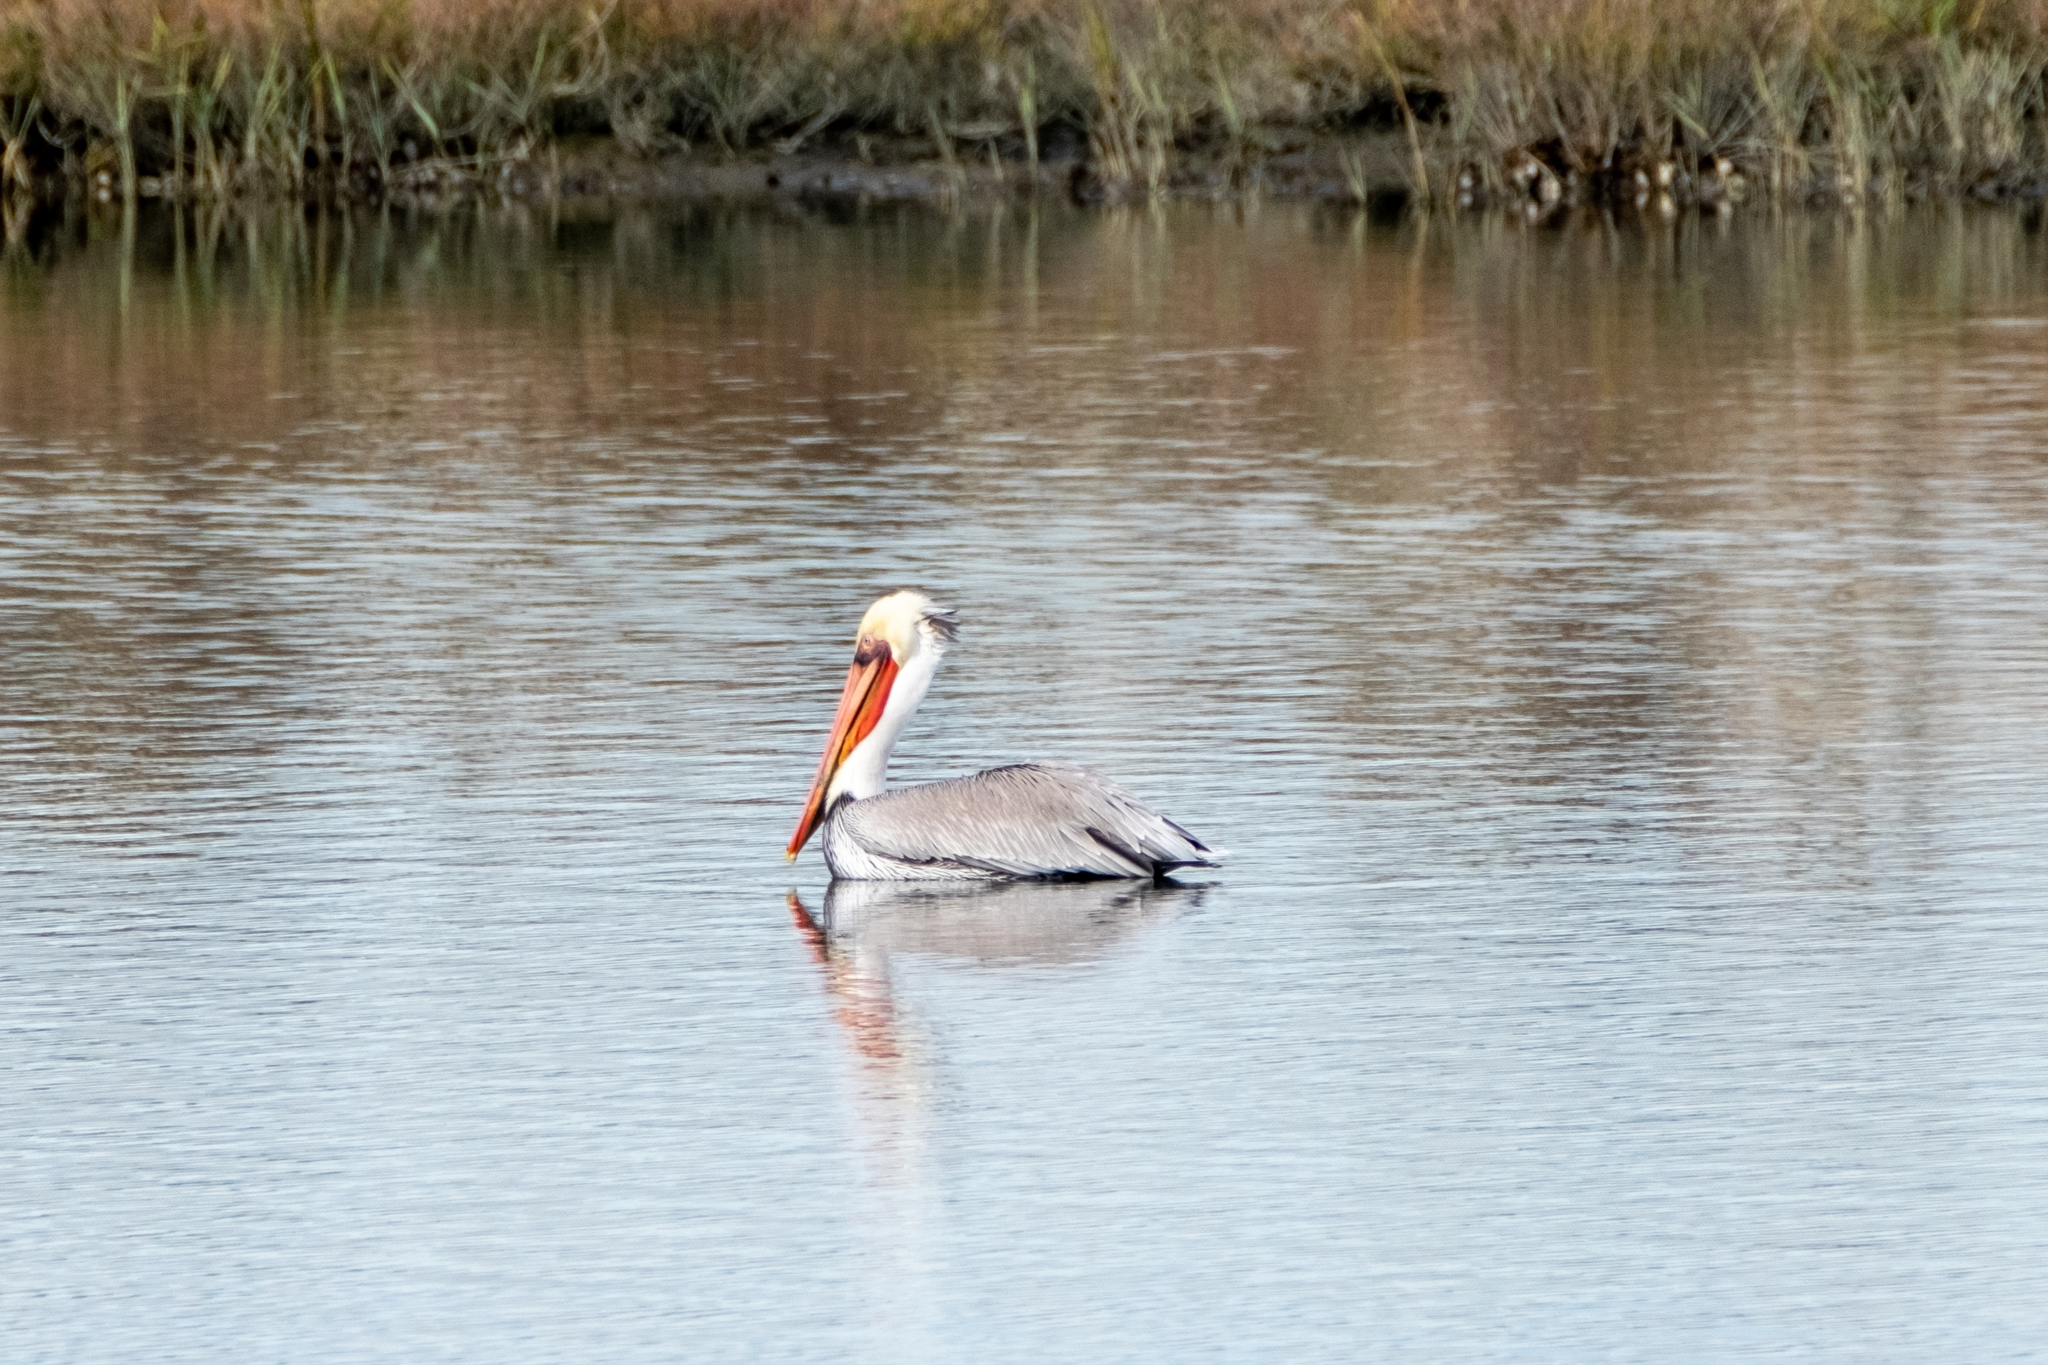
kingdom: Animalia
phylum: Chordata
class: Aves
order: Pelecaniformes
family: Pelecanidae
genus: Pelecanus
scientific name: Pelecanus occidentalis
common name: Brown pelican
